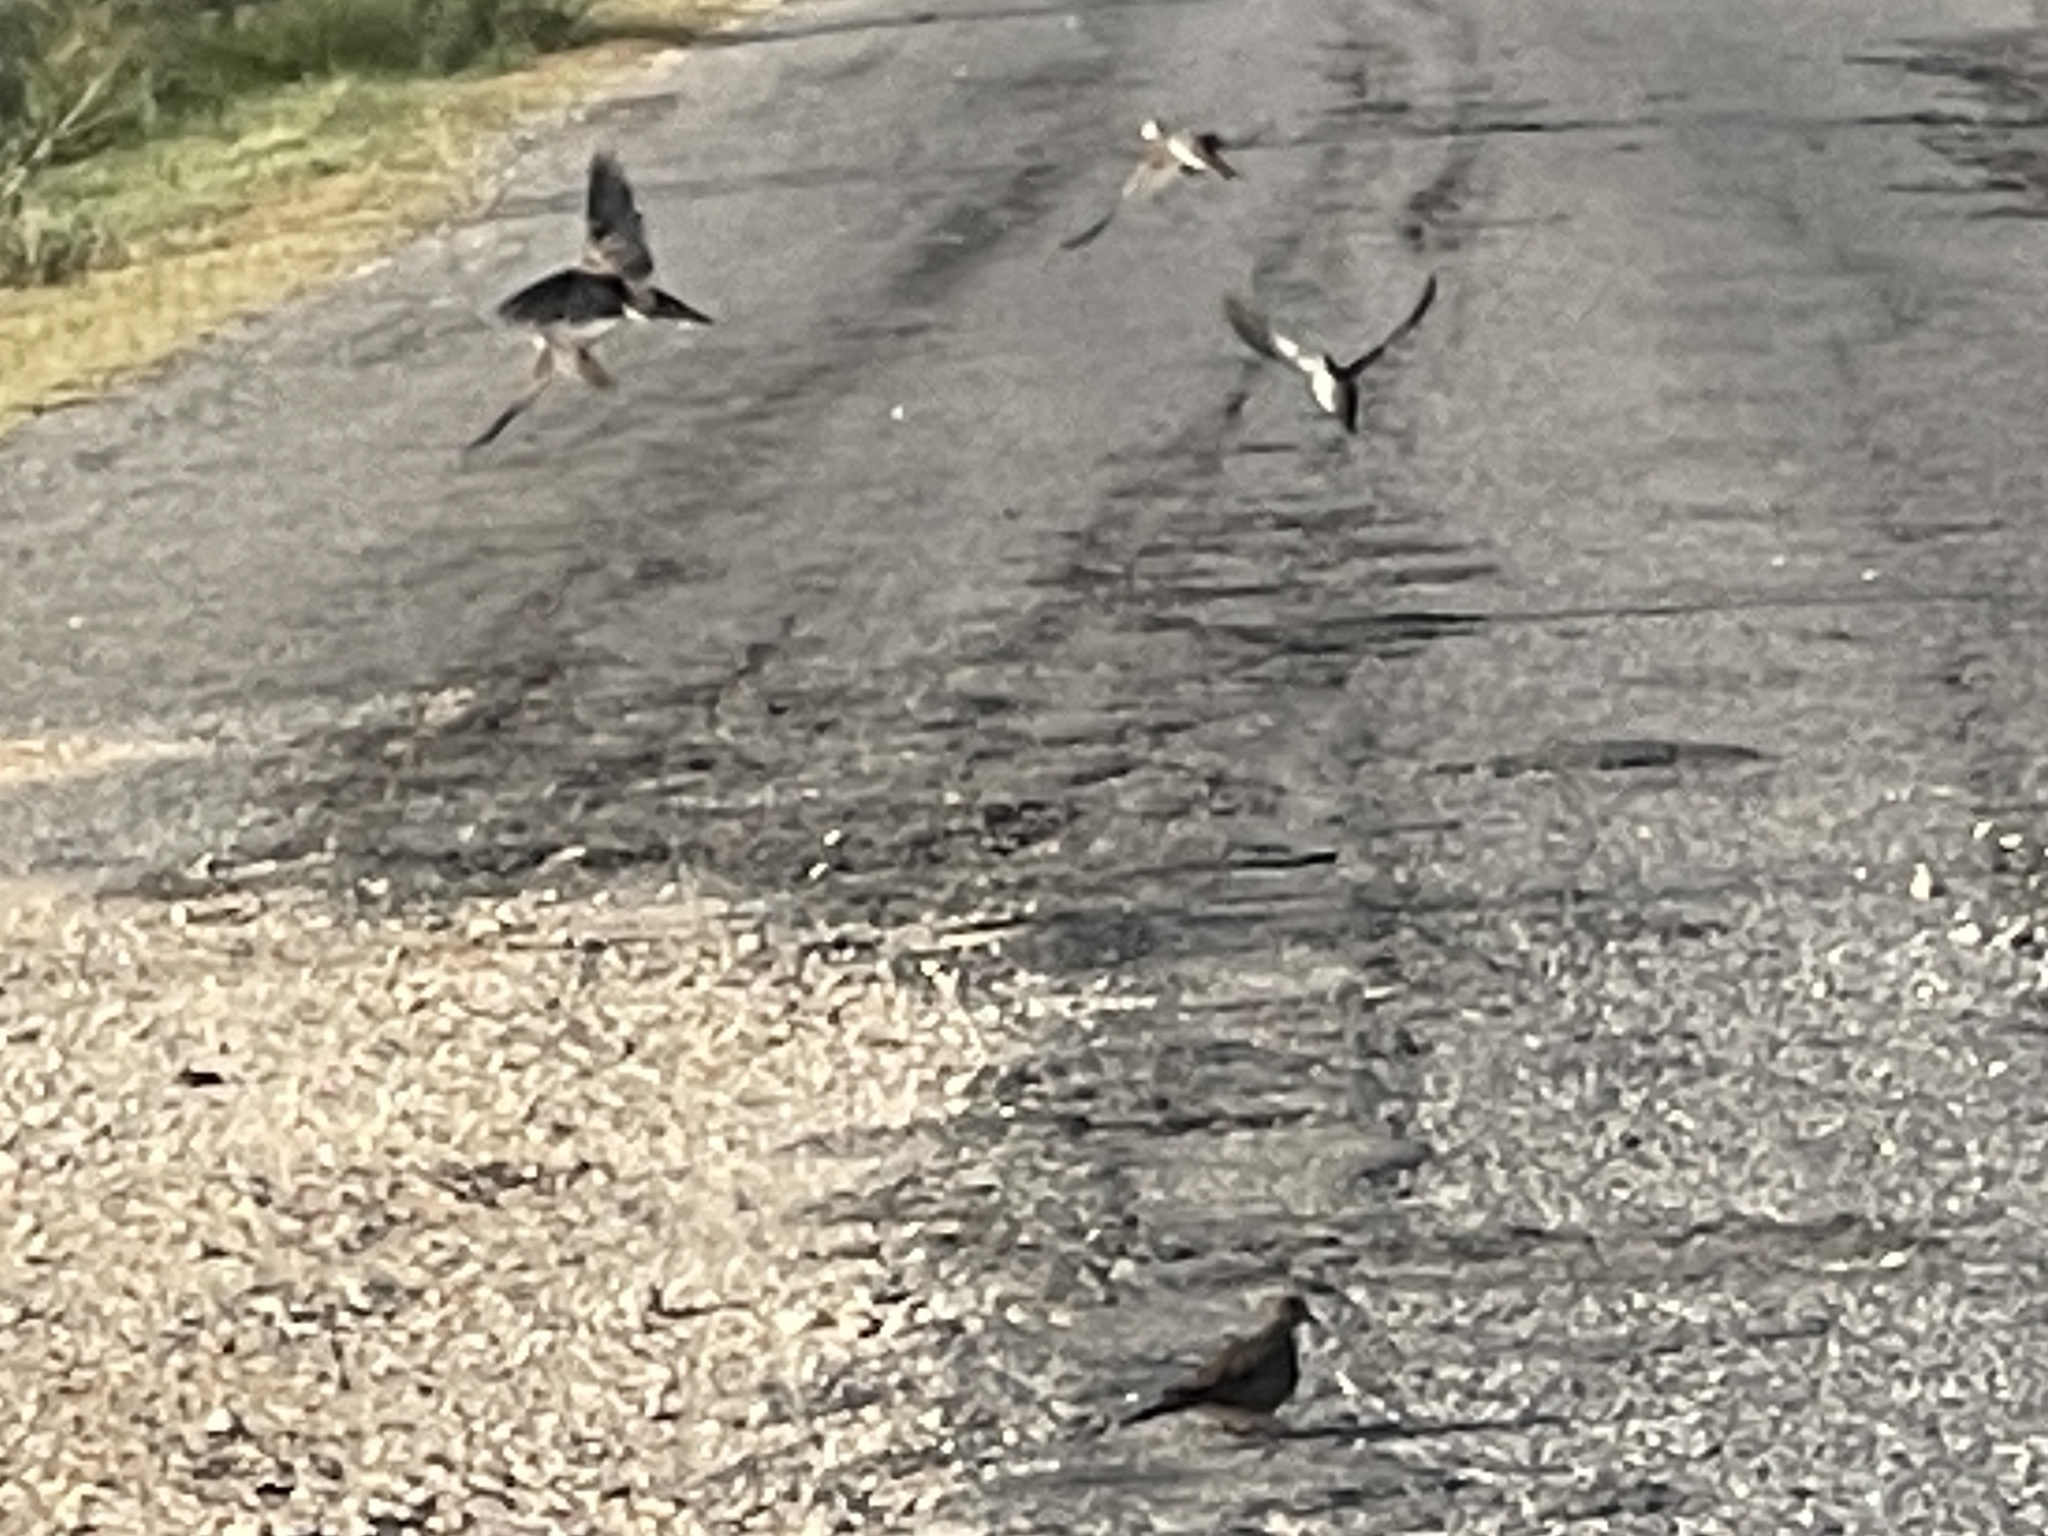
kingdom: Animalia
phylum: Chordata
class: Aves
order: Columbiformes
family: Columbidae
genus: Zenaida
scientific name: Zenaida macroura
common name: Mourning dove
